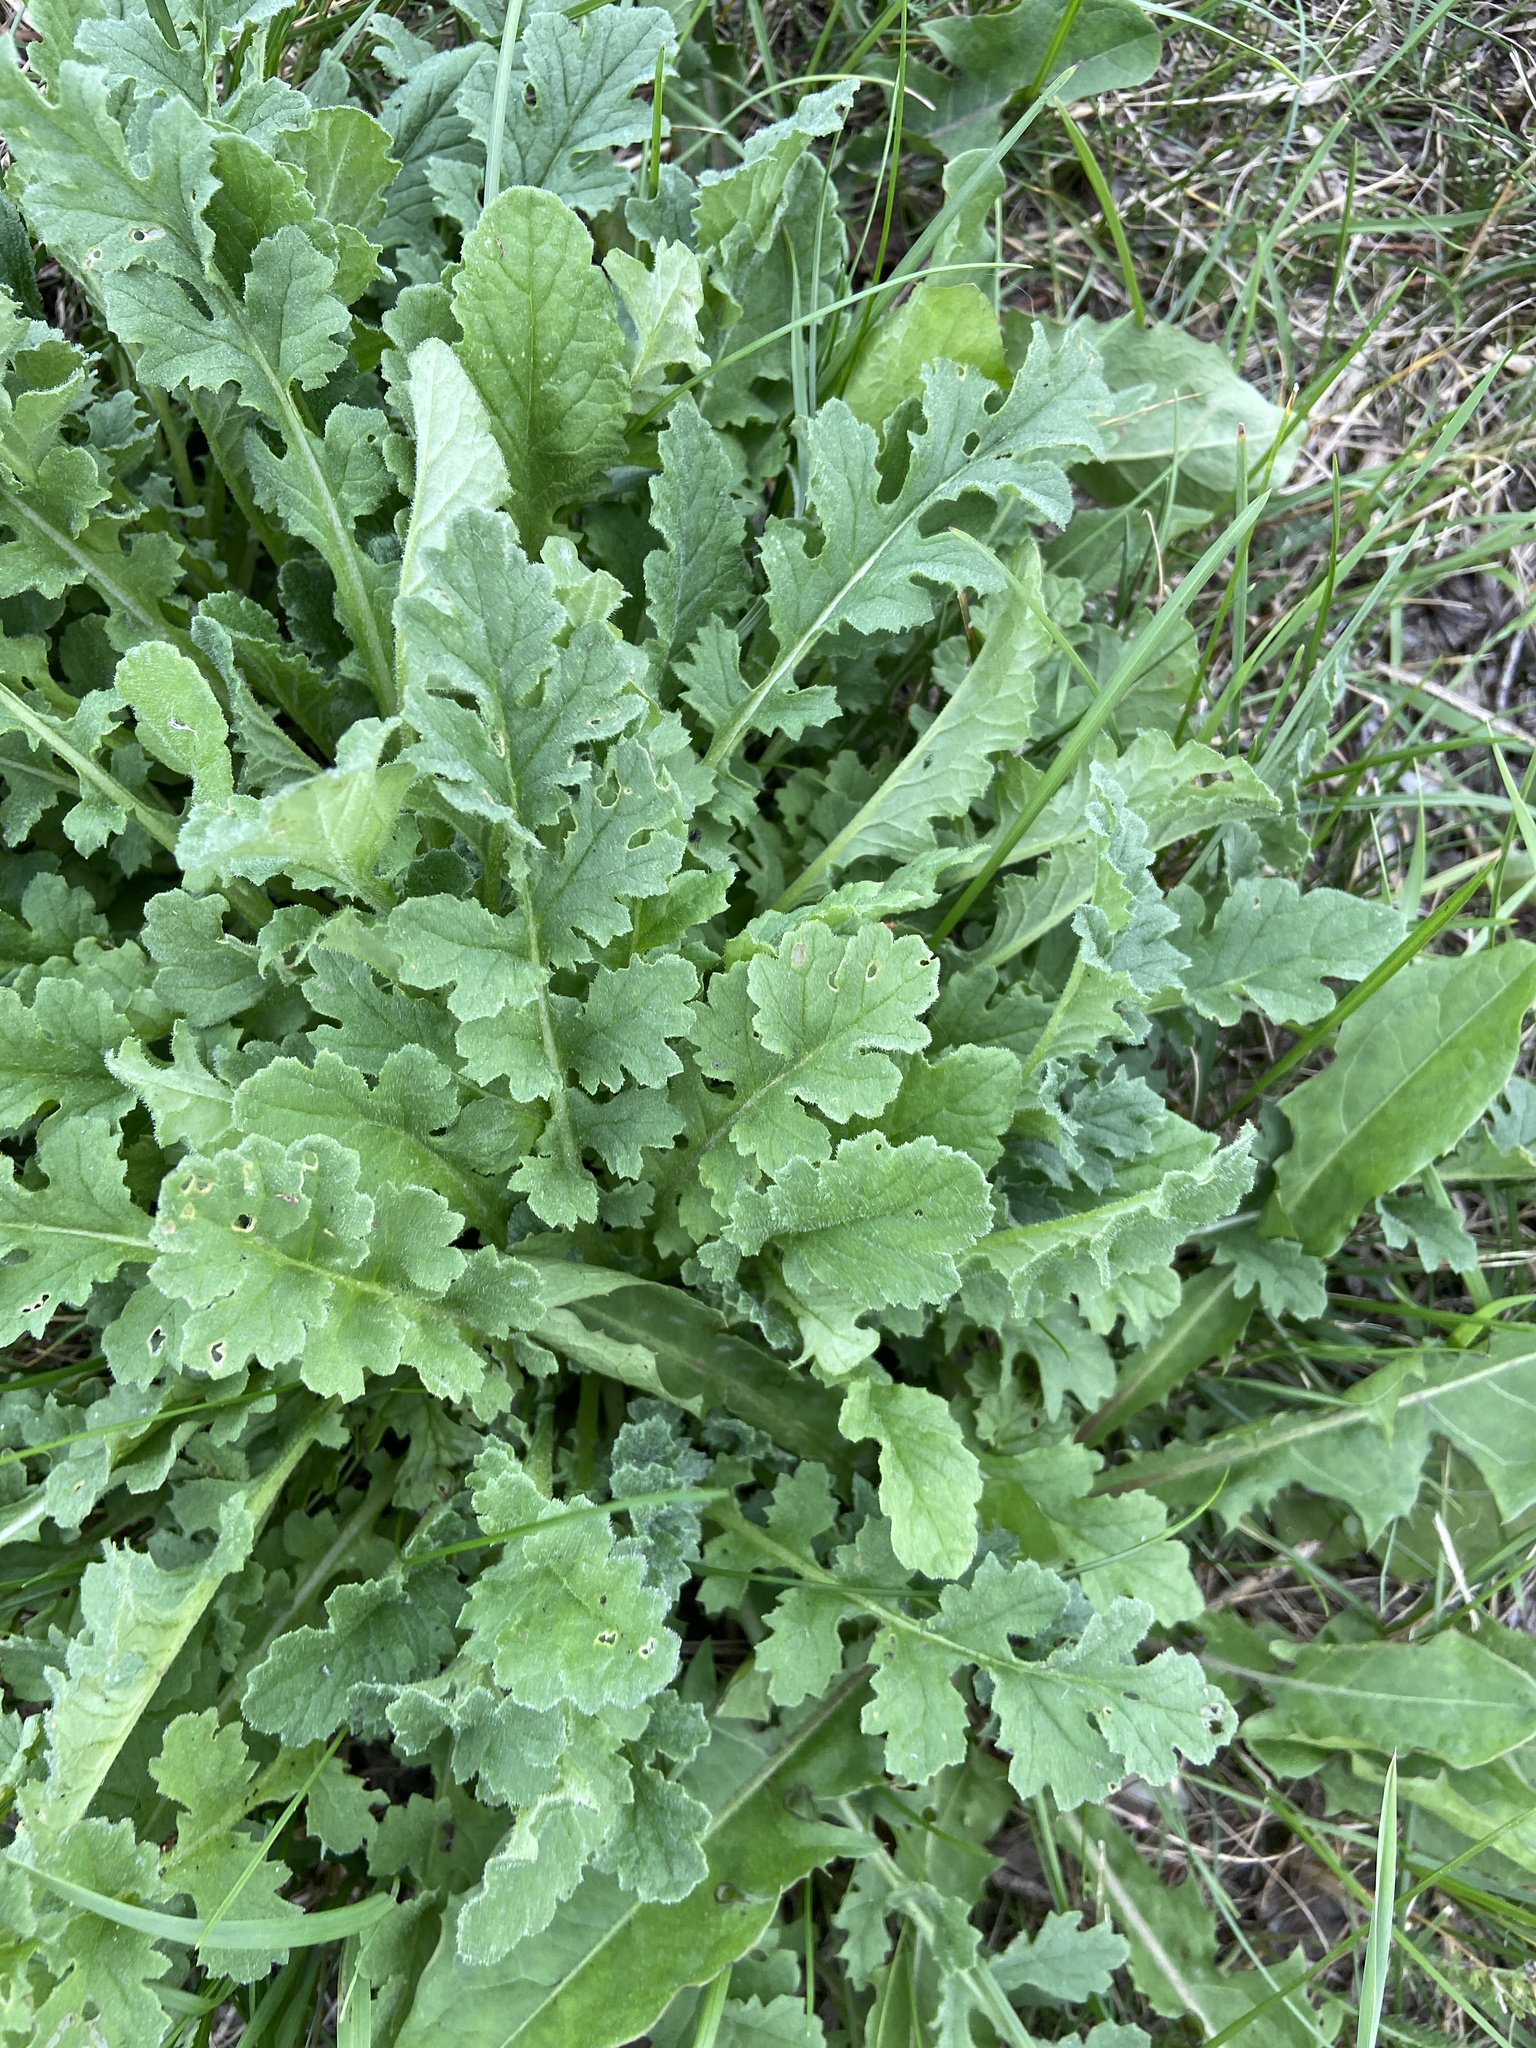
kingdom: Plantae
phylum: Tracheophyta
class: Magnoliopsida
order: Brassicales
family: Brassicaceae
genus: Rorippa
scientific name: Rorippa palustris
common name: Marsh yellow-cress
